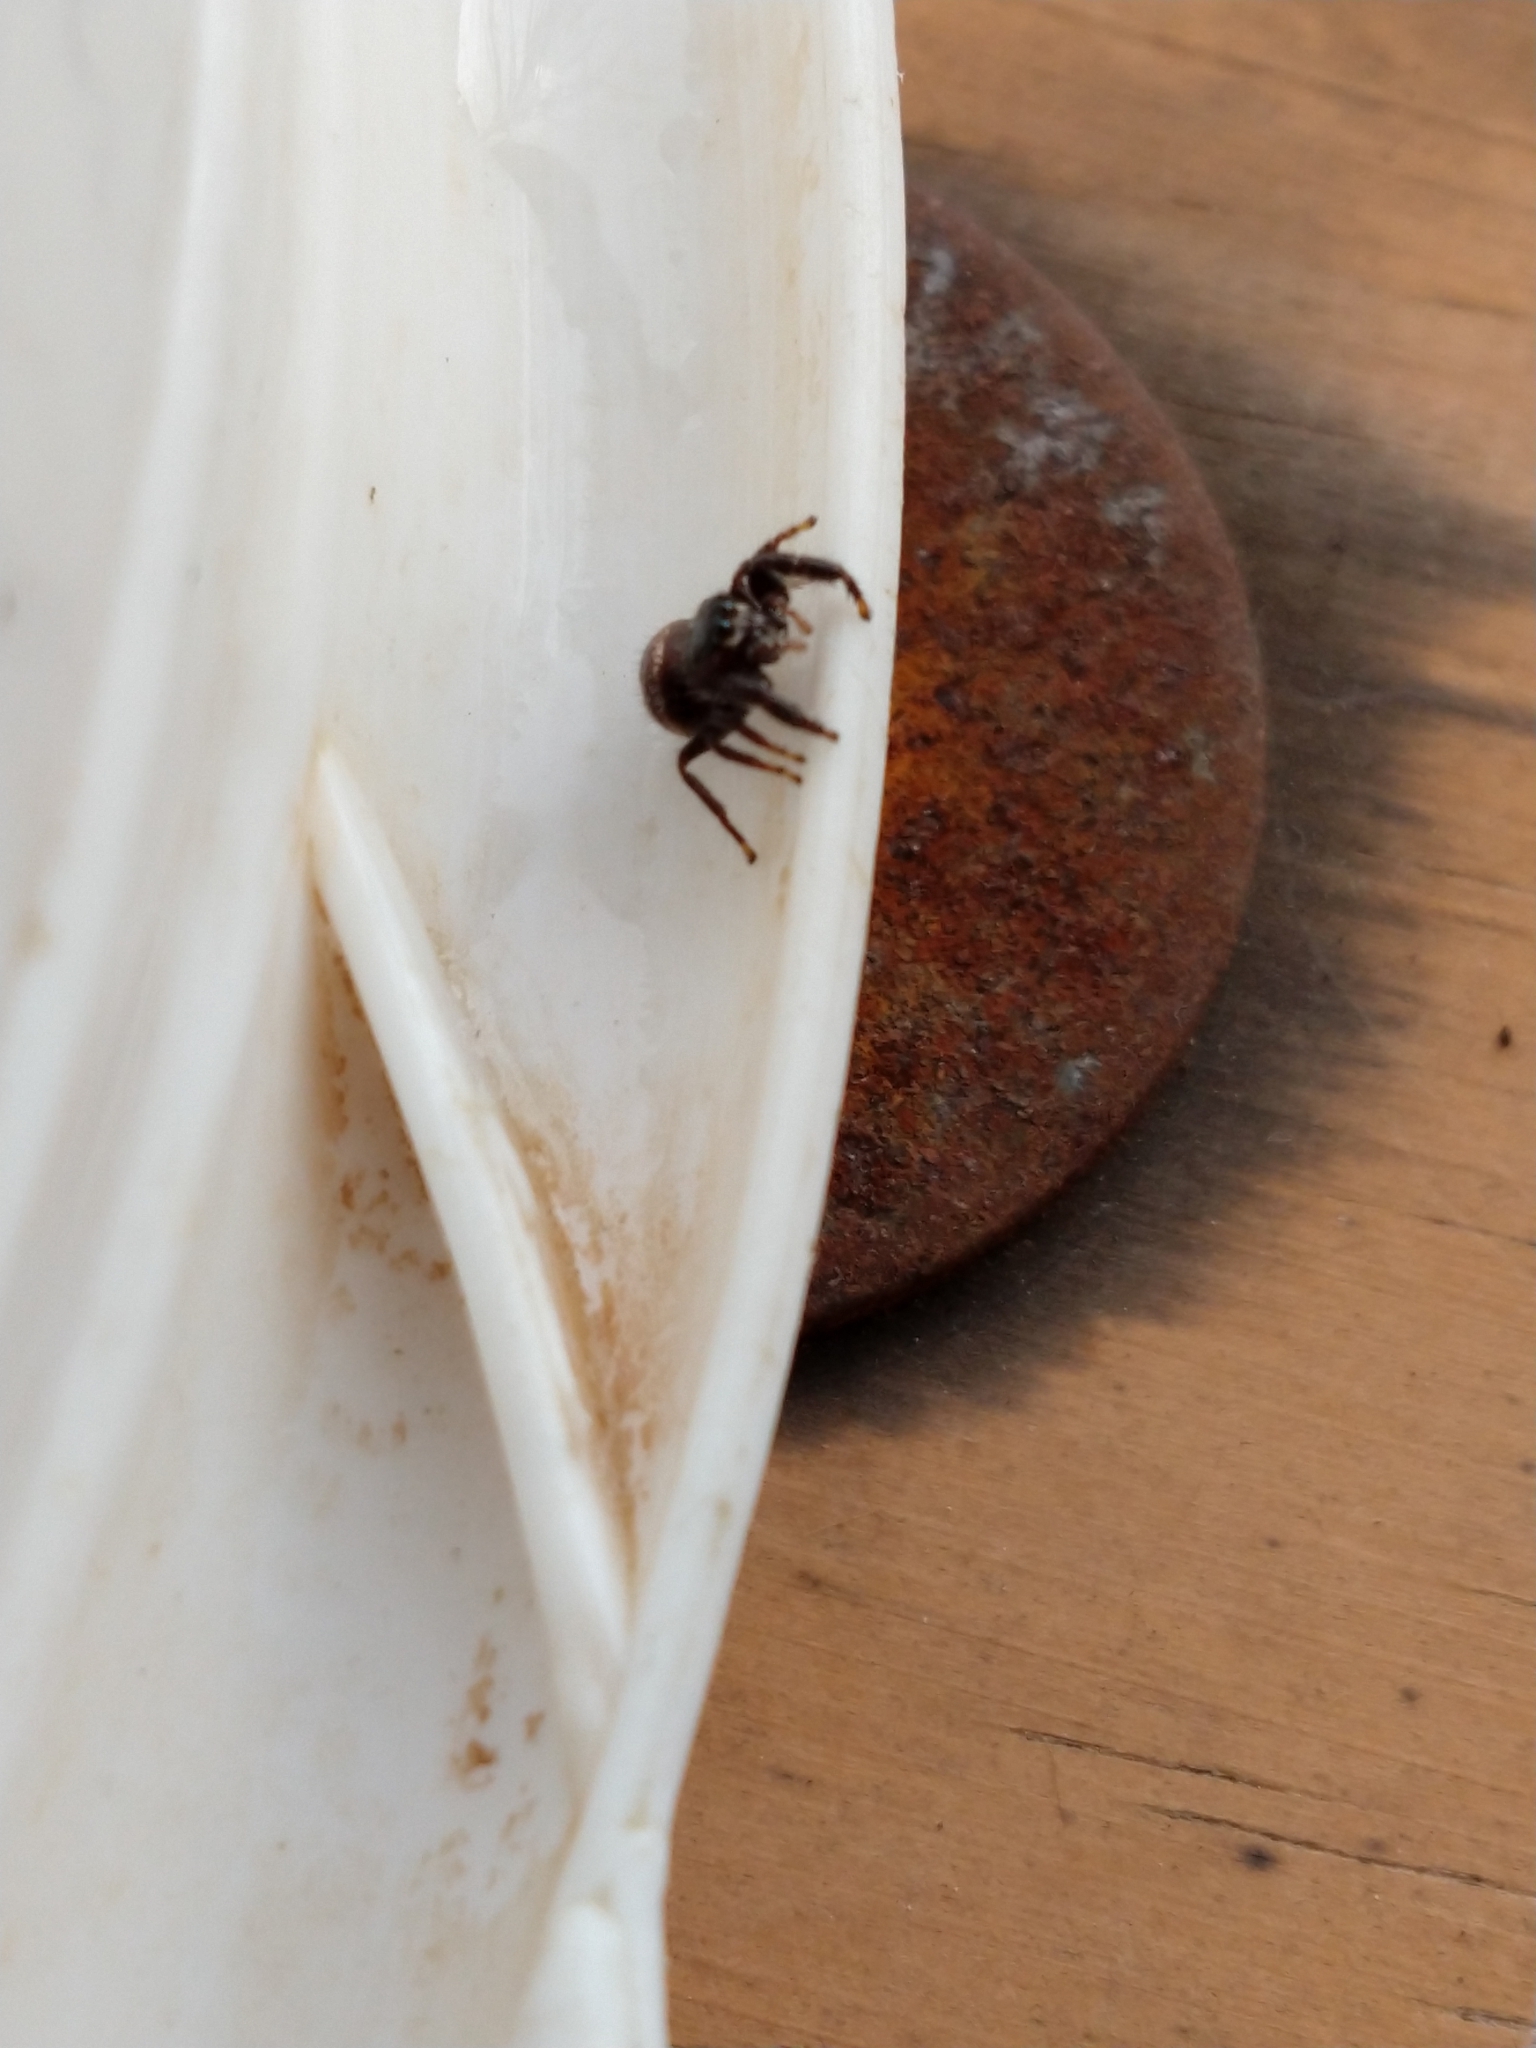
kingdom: Animalia
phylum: Arthropoda
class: Arachnida
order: Araneae
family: Salticidae
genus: Dendryphantes
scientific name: Dendryphantes mordax
